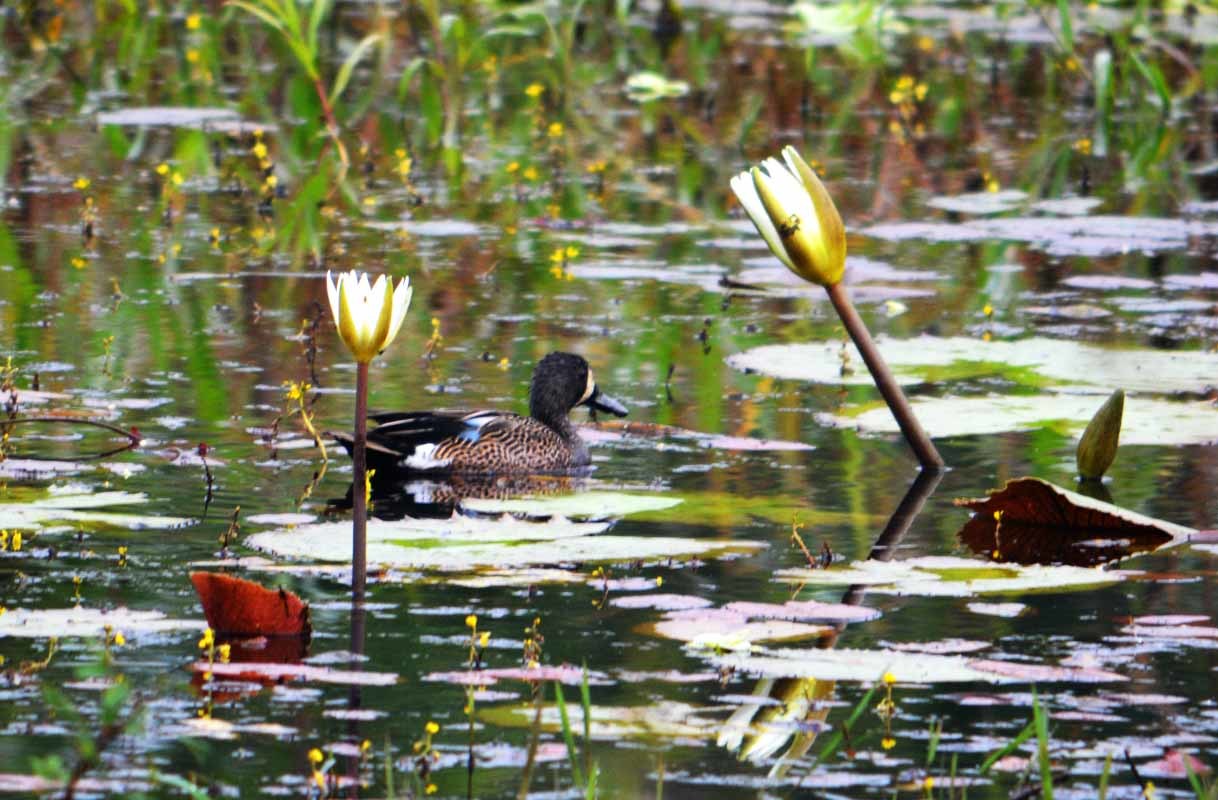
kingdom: Animalia
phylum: Chordata
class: Aves
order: Anseriformes
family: Anatidae
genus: Spatula
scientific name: Spatula discors
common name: Blue-winged teal
